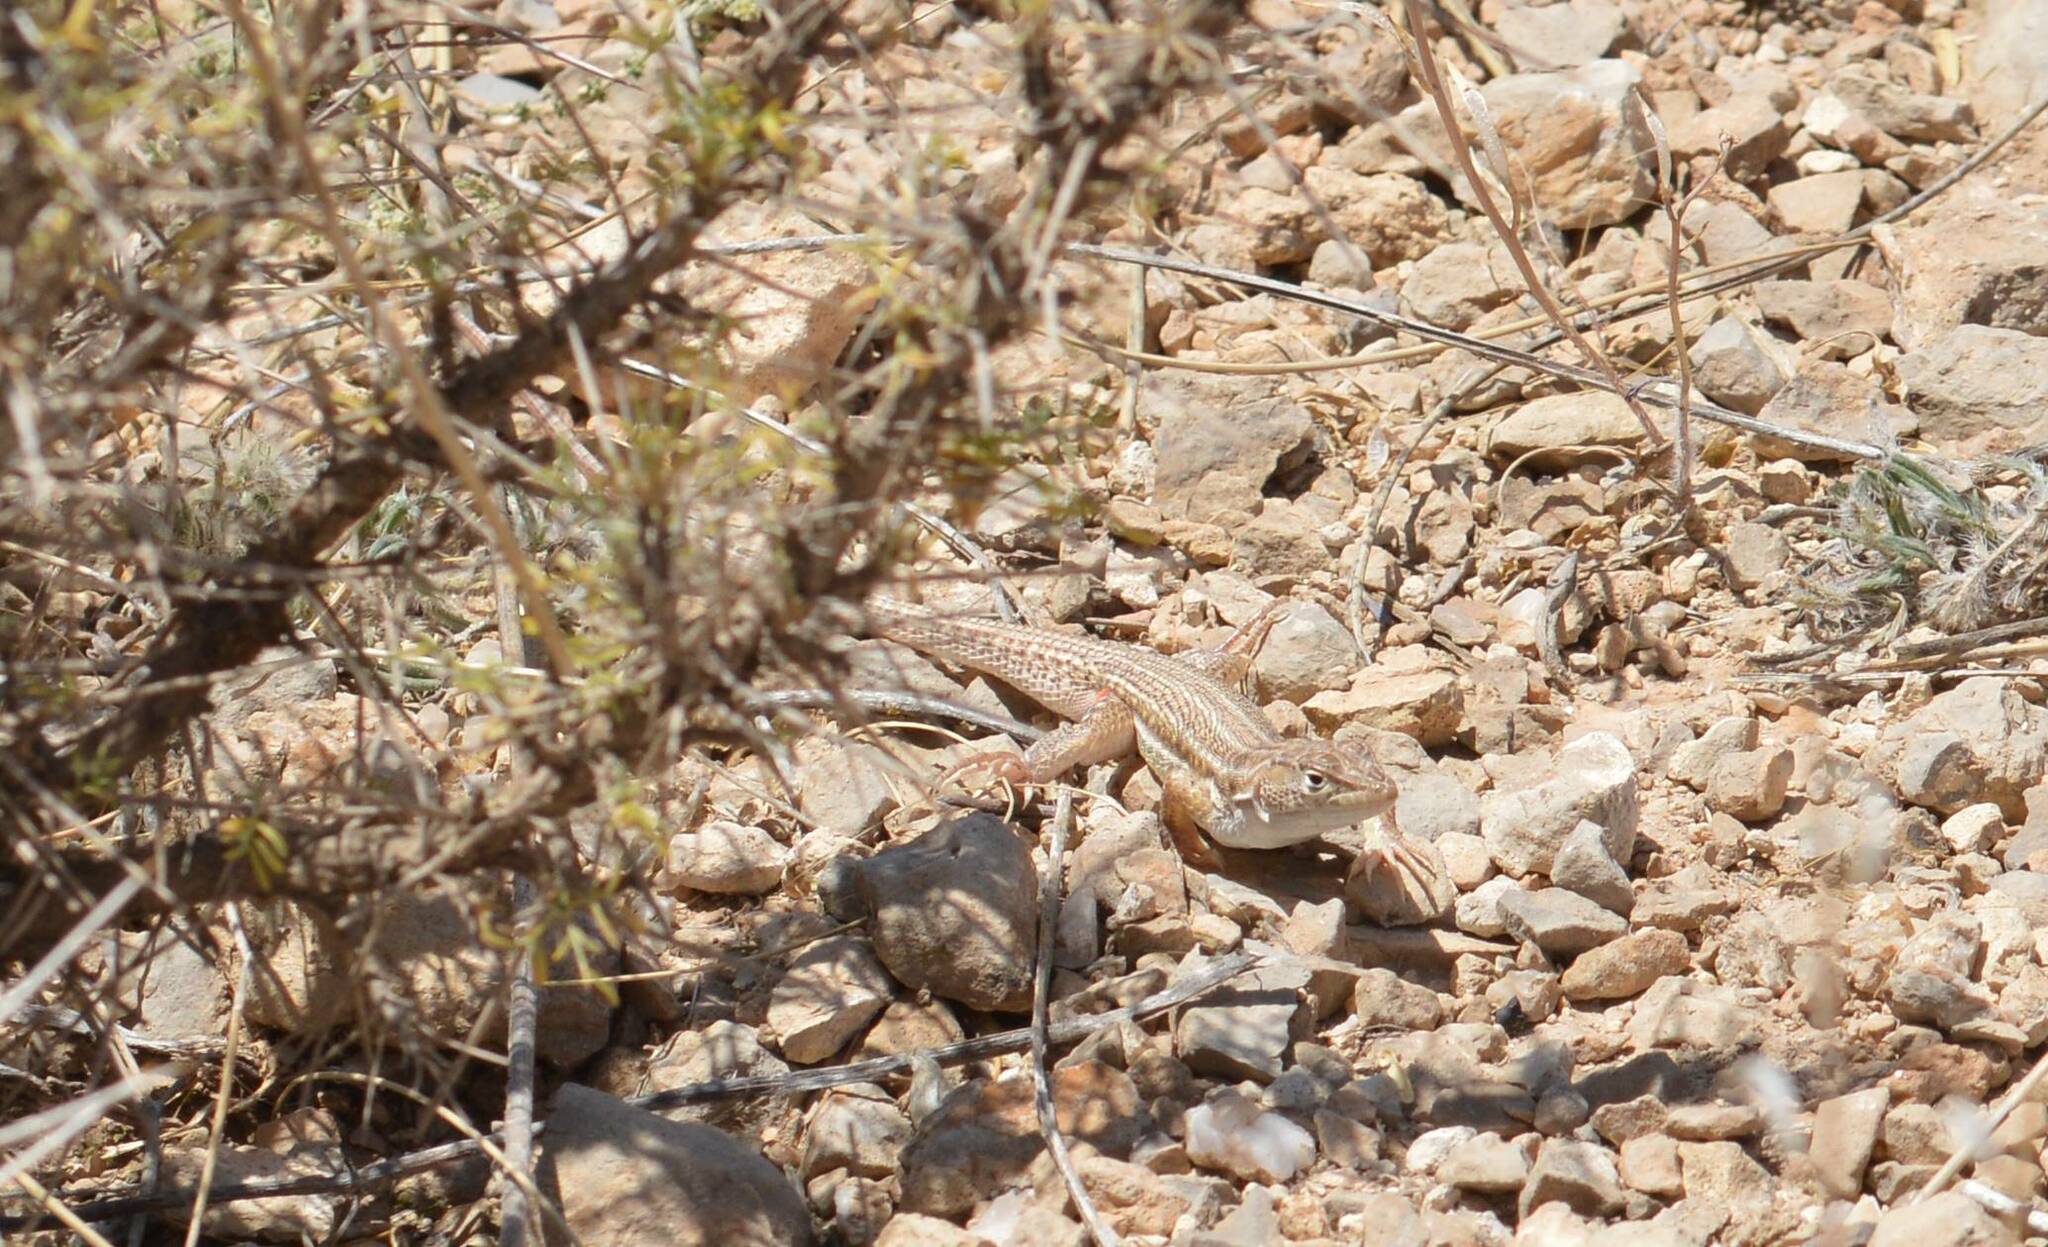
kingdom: Animalia
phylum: Chordata
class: Squamata
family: Lacertidae
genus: Acanthodactylus
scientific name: Acanthodactylus boskianus
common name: Bosc’s fringe-toed lizard
